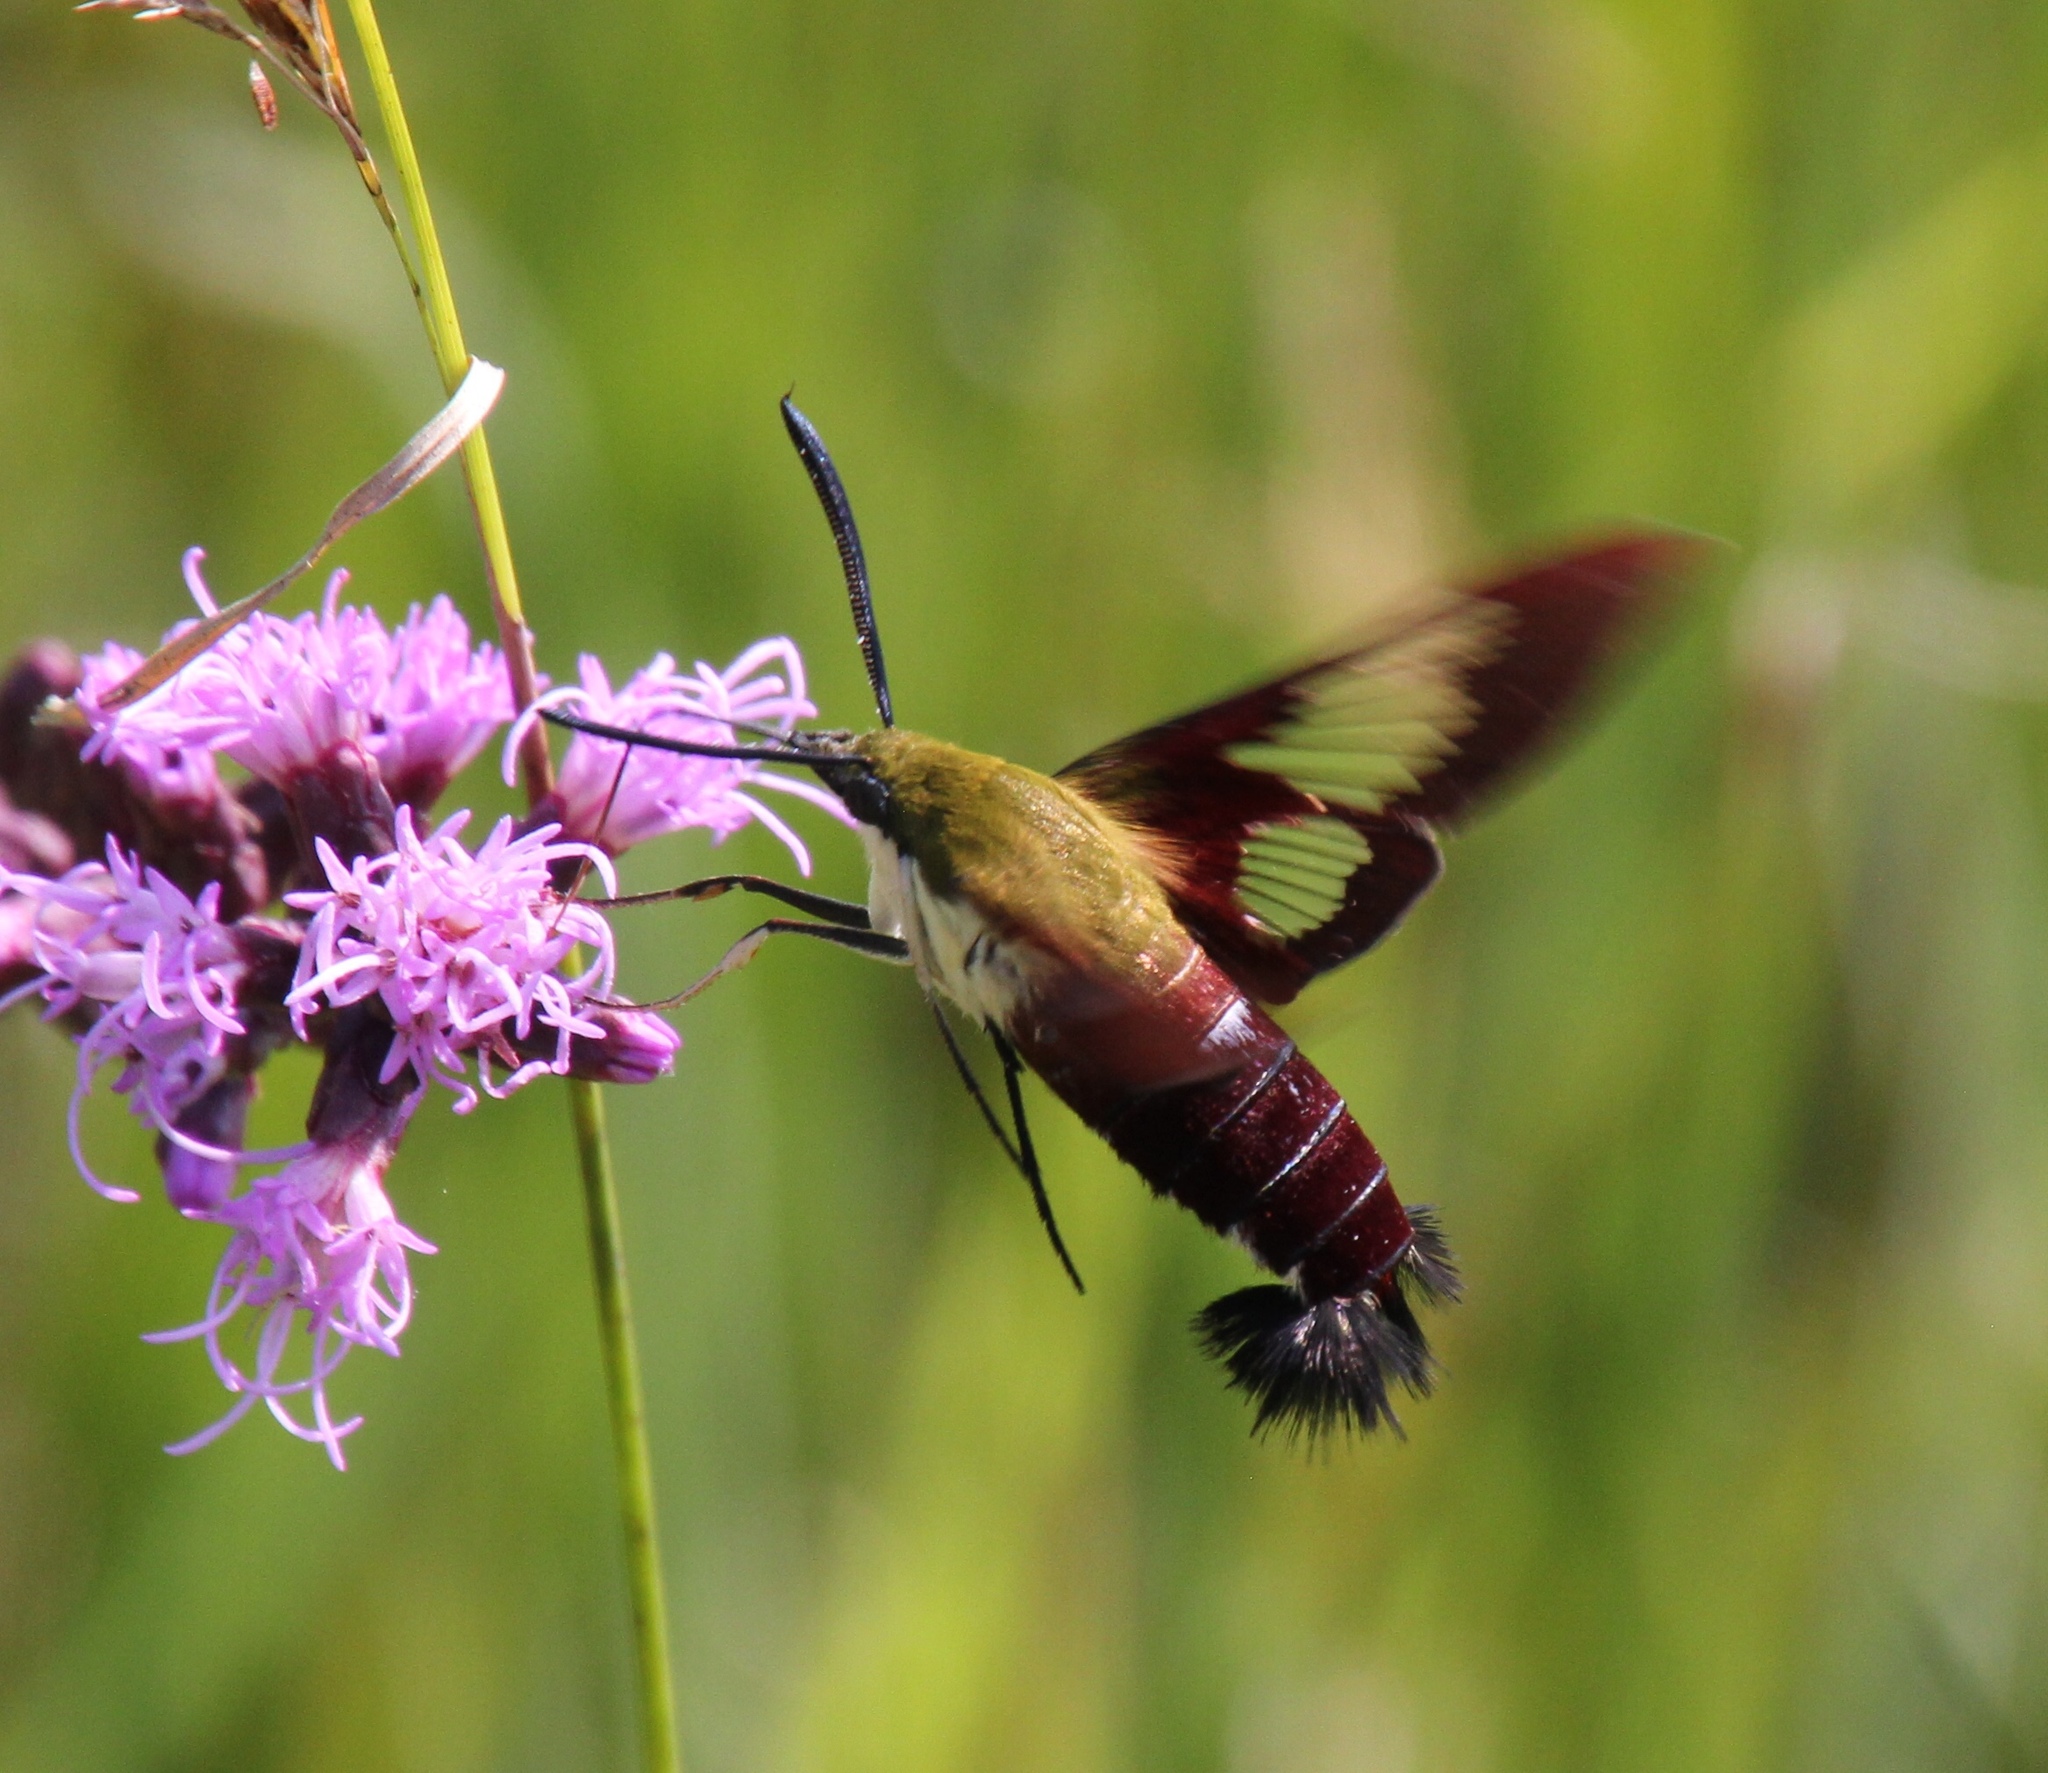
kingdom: Animalia
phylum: Arthropoda
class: Insecta
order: Lepidoptera
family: Sphingidae
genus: Hemaris
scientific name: Hemaris thysbe
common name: Common clear-wing
